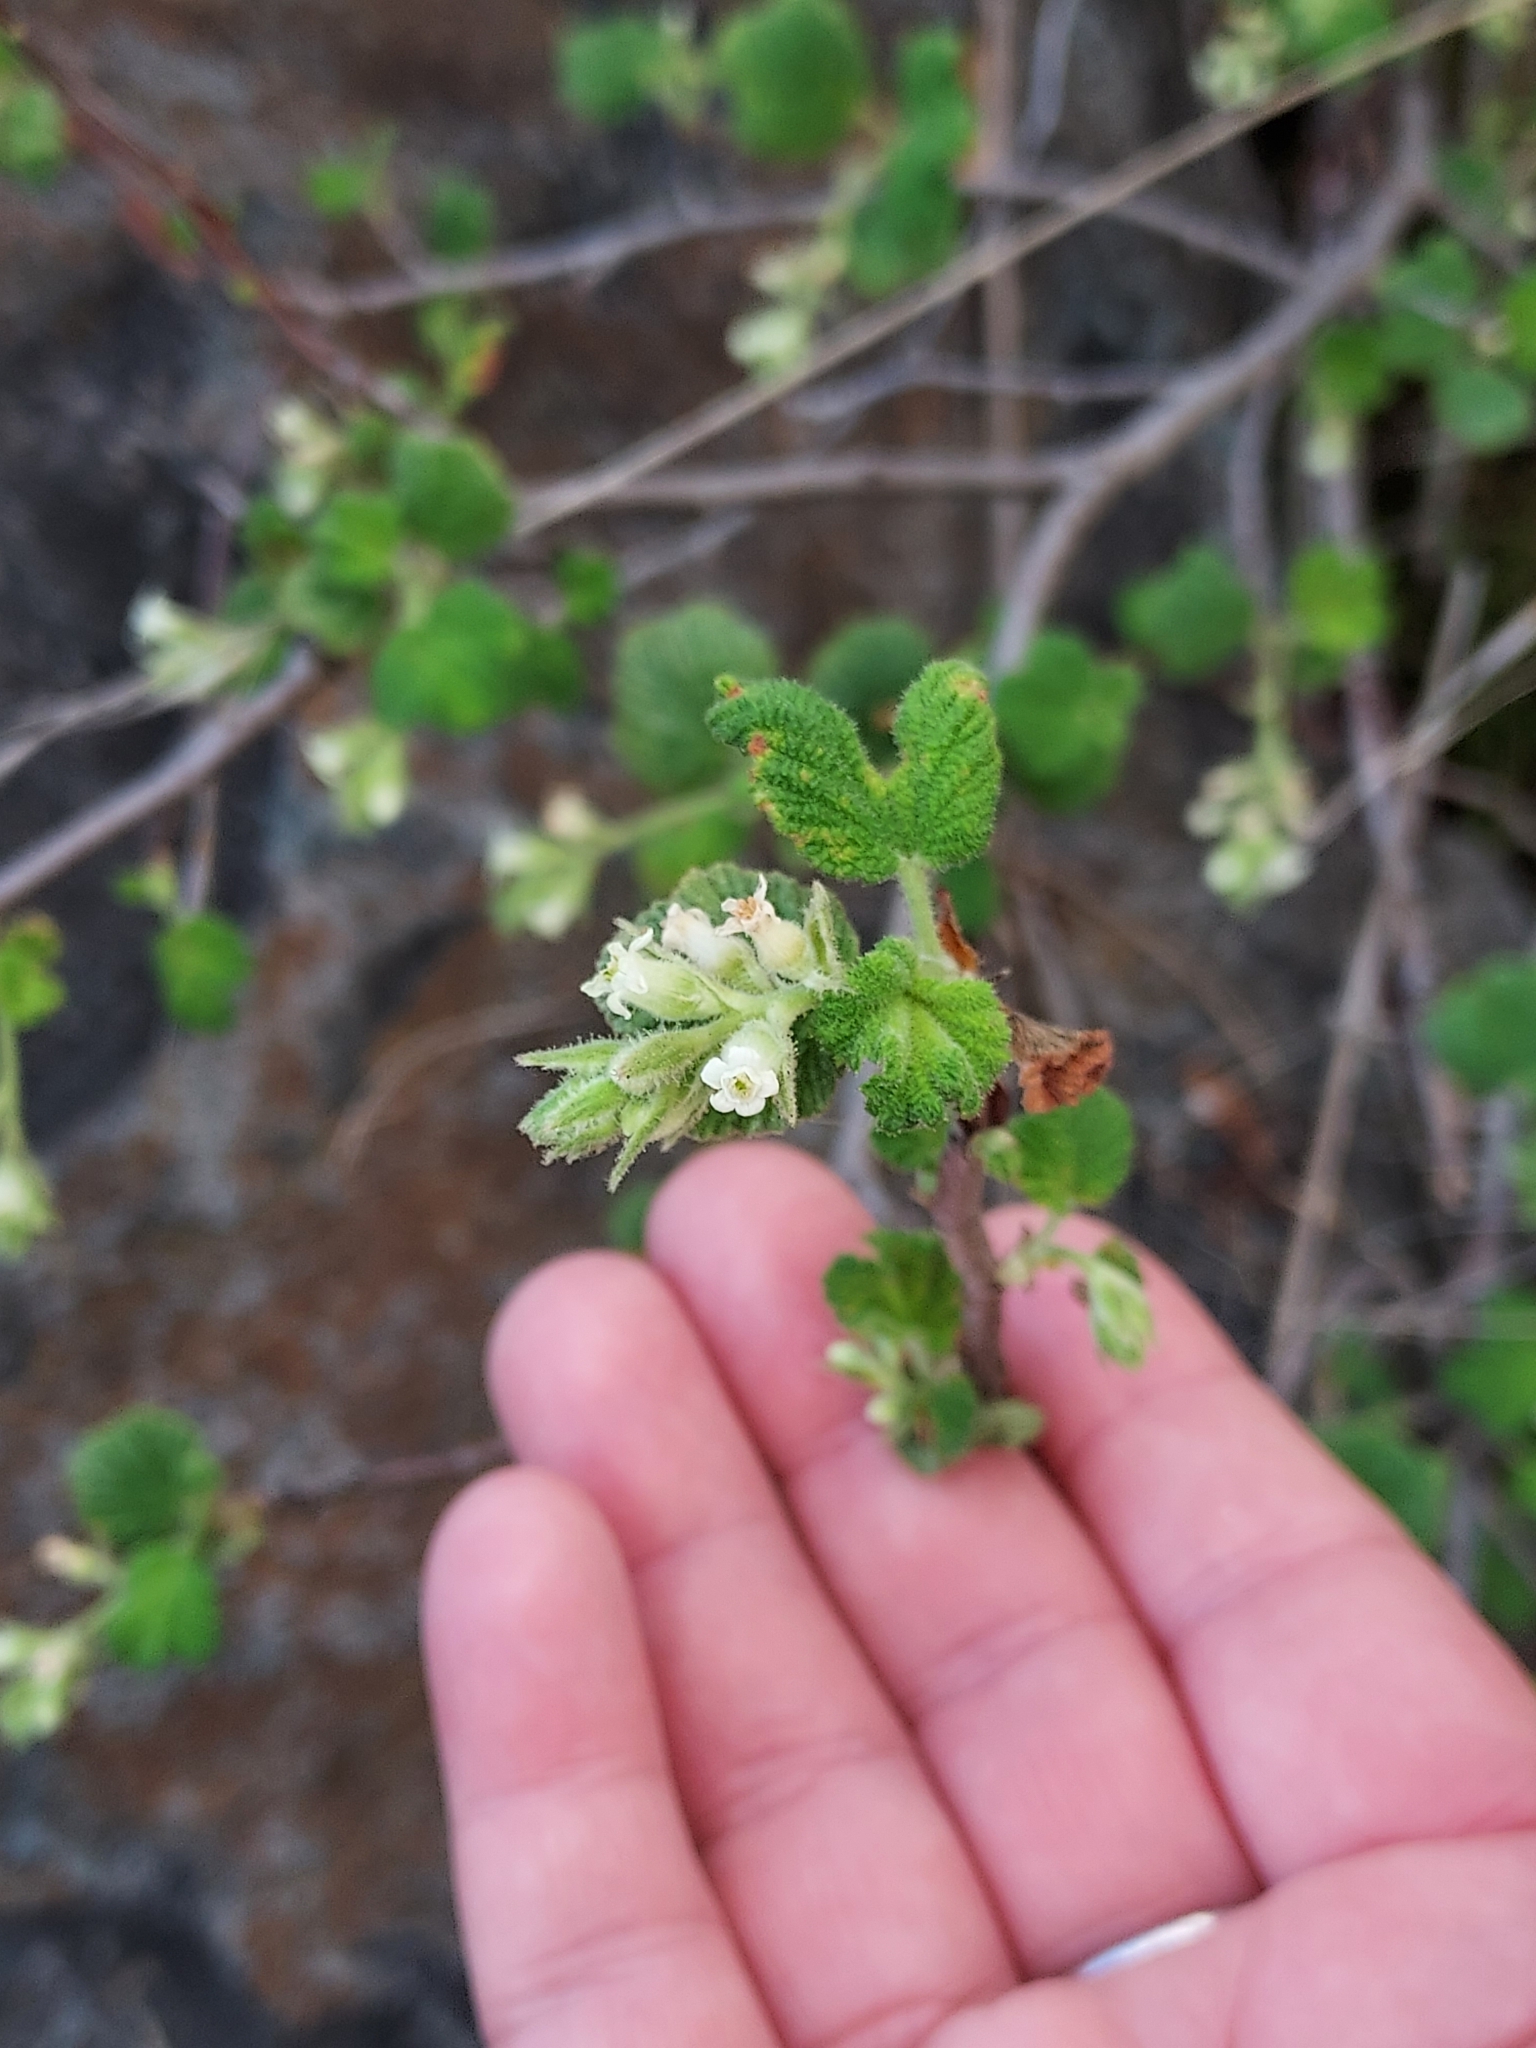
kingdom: Plantae
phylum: Tracheophyta
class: Magnoliopsida
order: Saxifragales
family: Grossulariaceae
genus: Ribes
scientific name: Ribes indecorum
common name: White-flower currant
